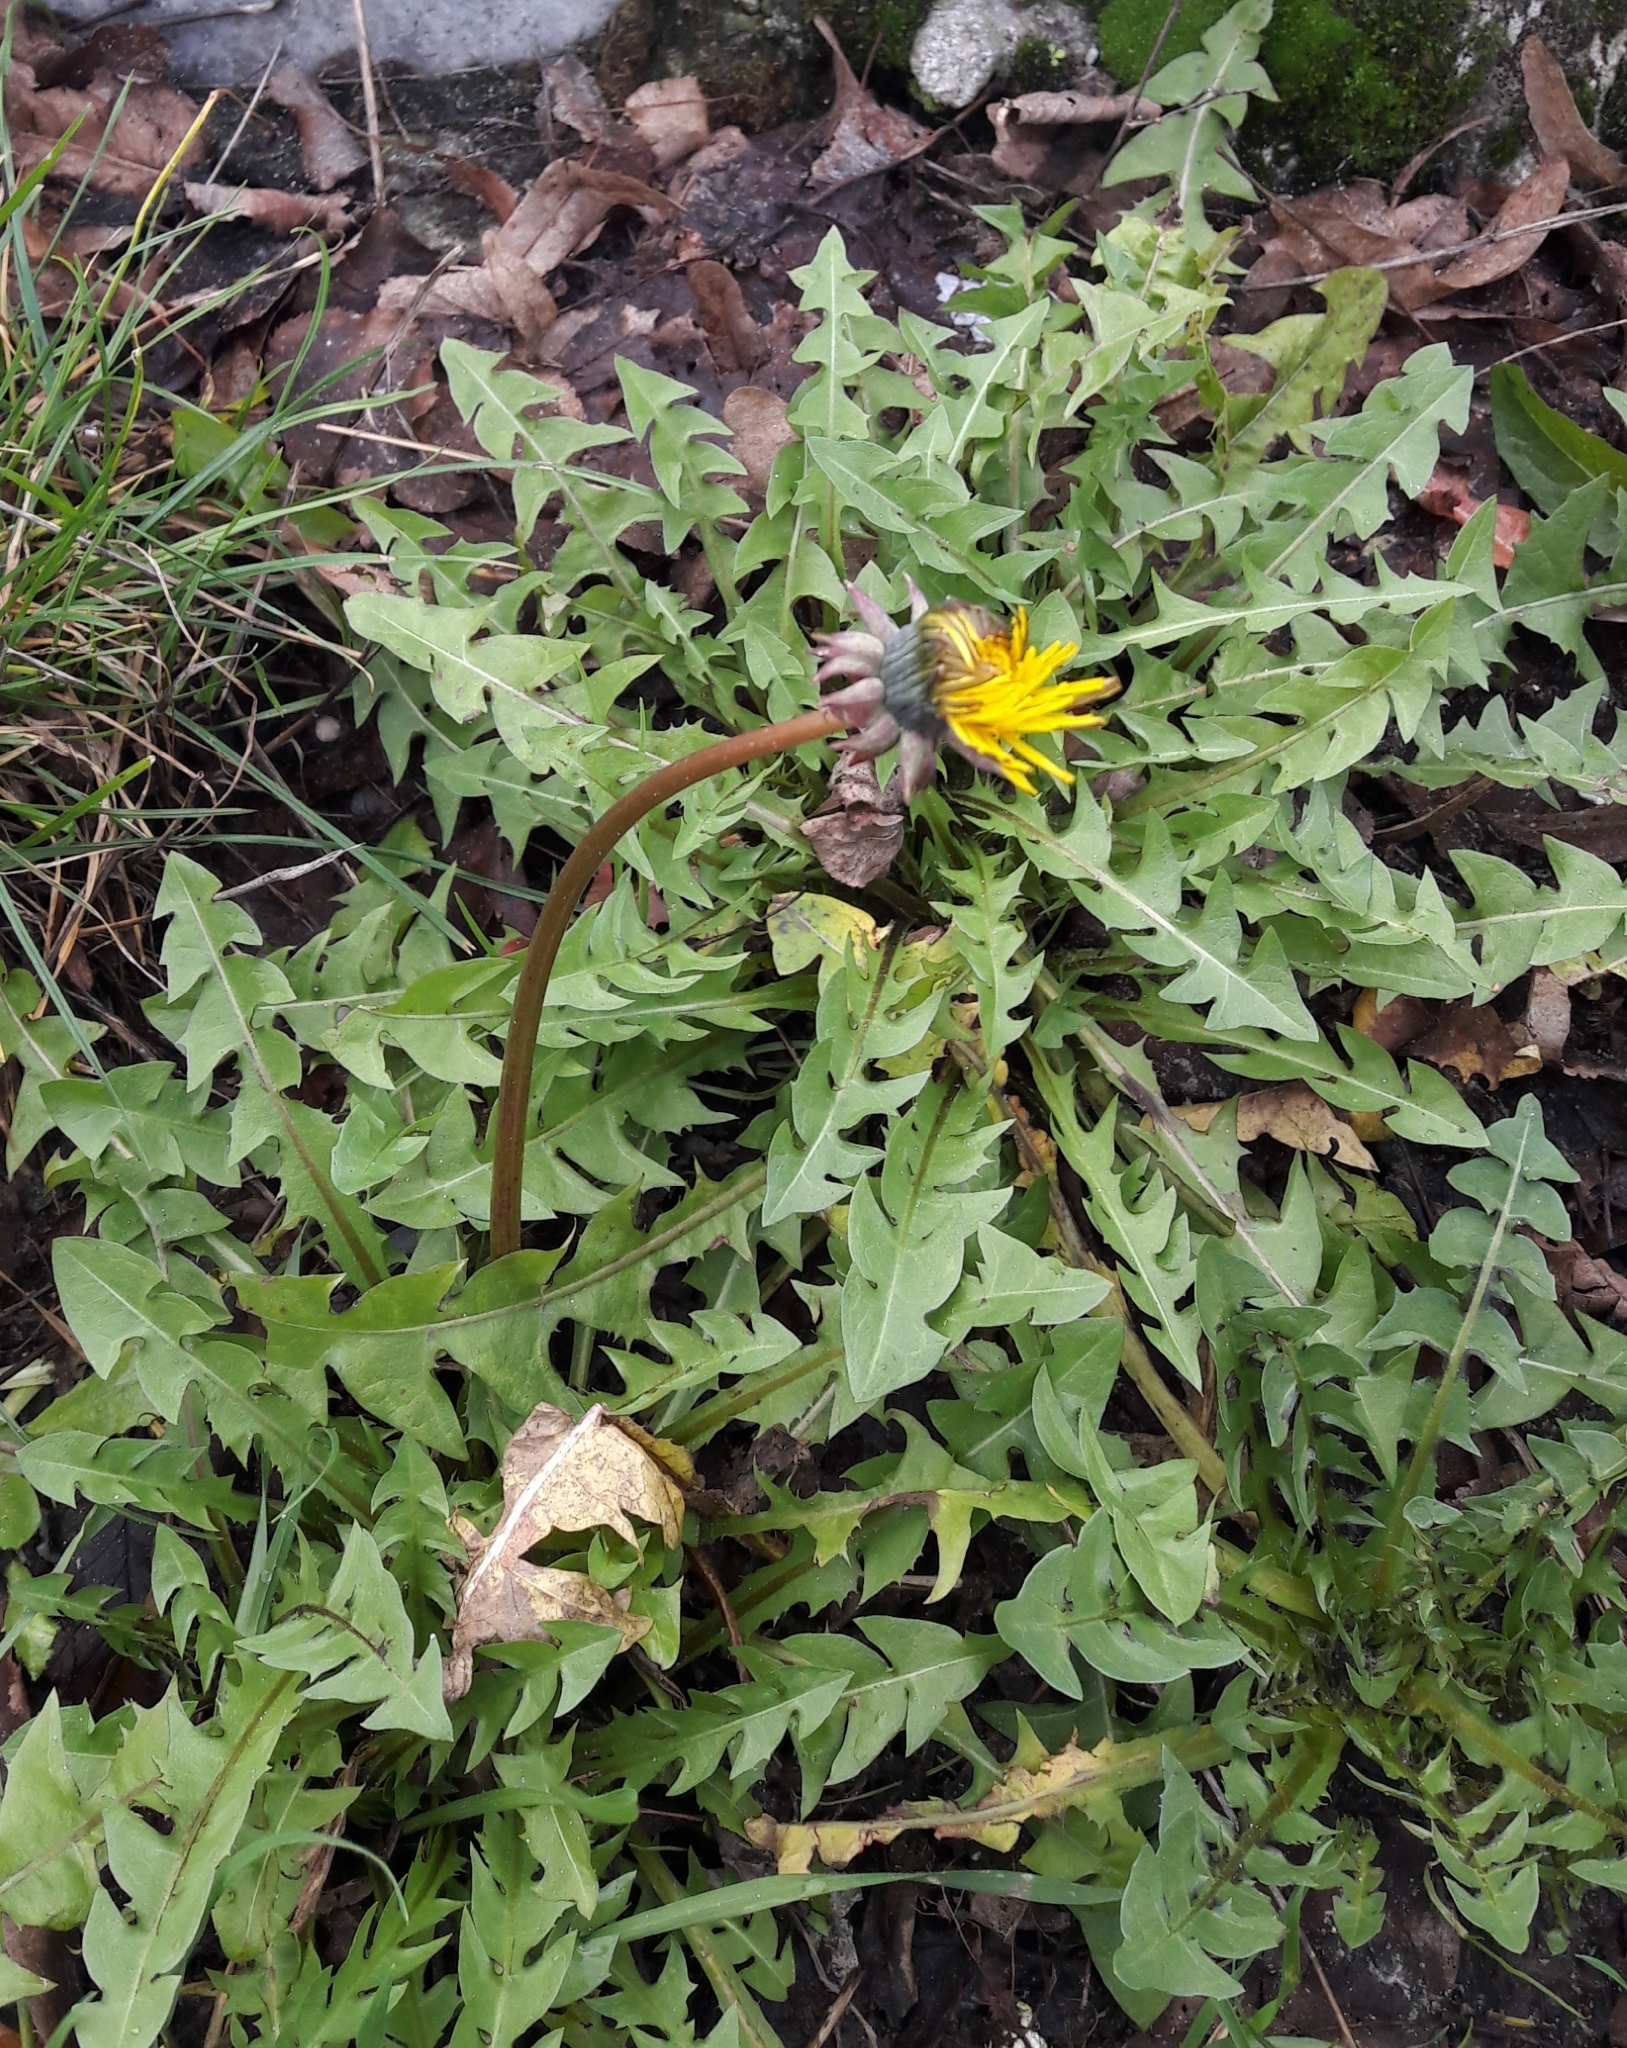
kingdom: Plantae
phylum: Tracheophyta
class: Magnoliopsida
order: Asterales
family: Asteraceae
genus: Taraxacum
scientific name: Taraxacum officinale
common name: Common dandelion
